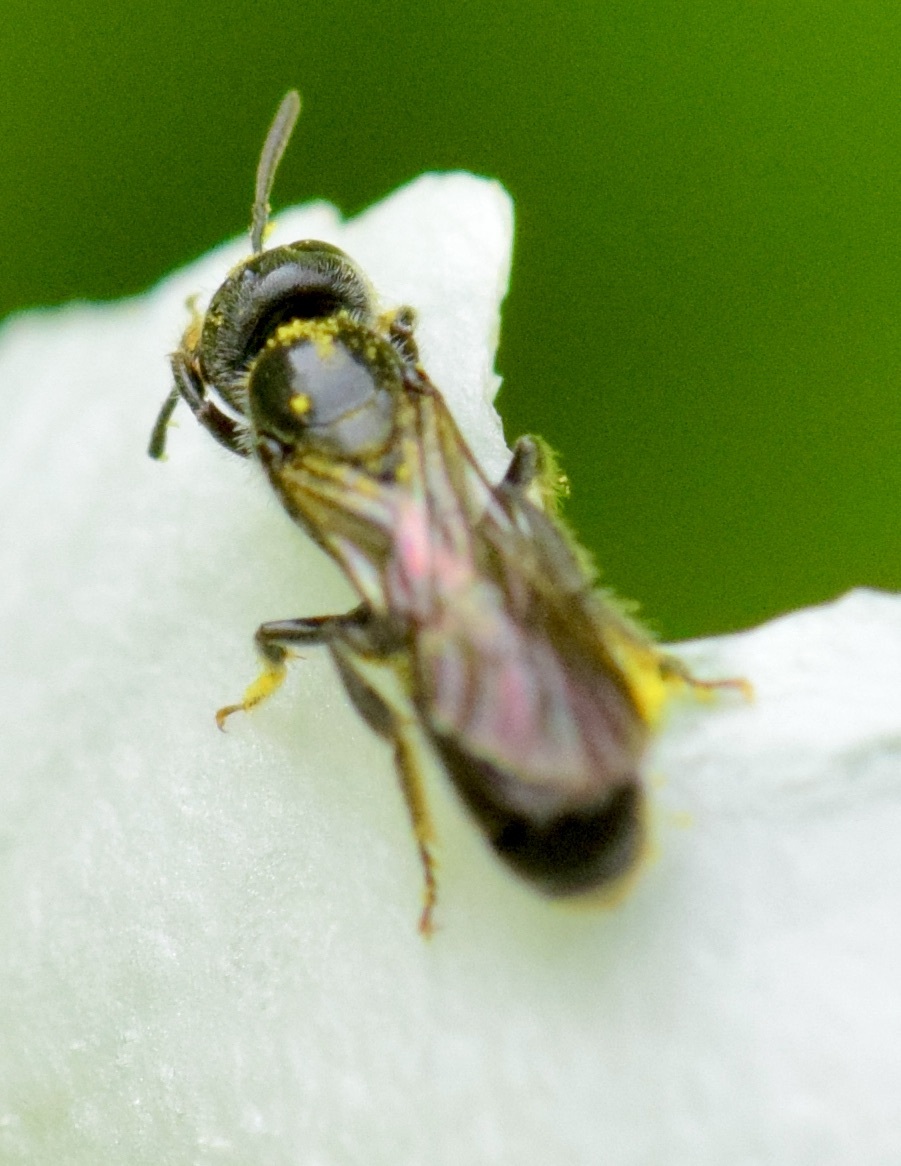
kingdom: Animalia
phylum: Arthropoda
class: Insecta
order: Hymenoptera
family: Megachilidae
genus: Chelostoma
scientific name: Chelostoma philadelphi
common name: Mock-orange scissor bee
